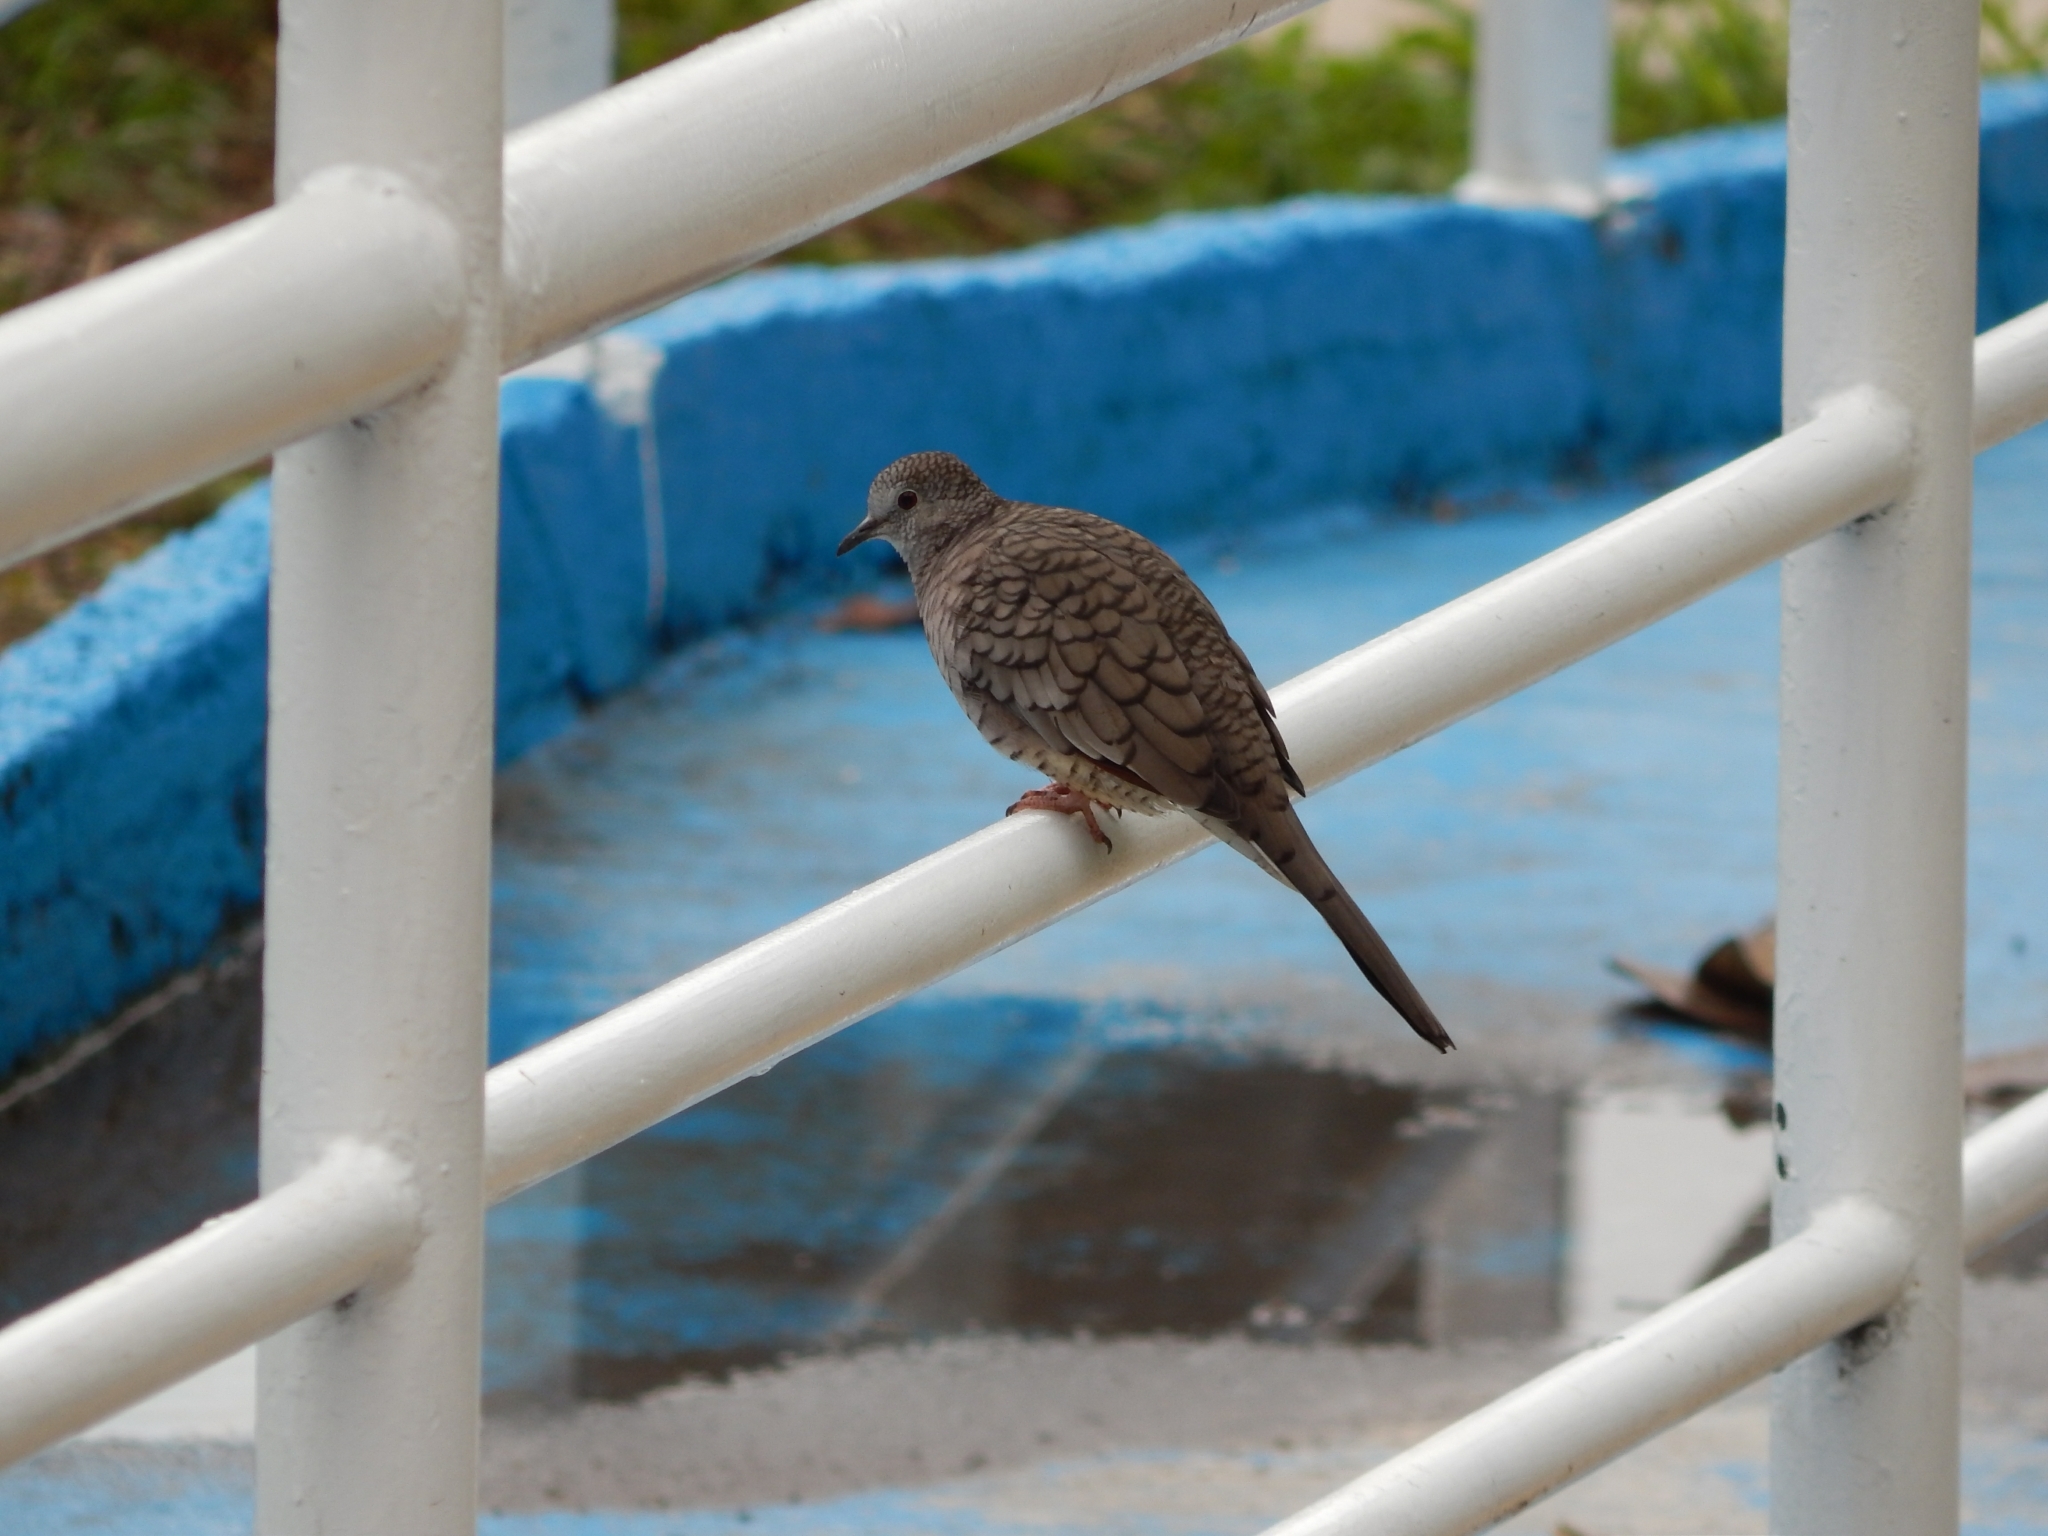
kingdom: Animalia
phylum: Chordata
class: Aves
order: Columbiformes
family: Columbidae
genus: Columbina
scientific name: Columbina inca
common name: Inca dove
